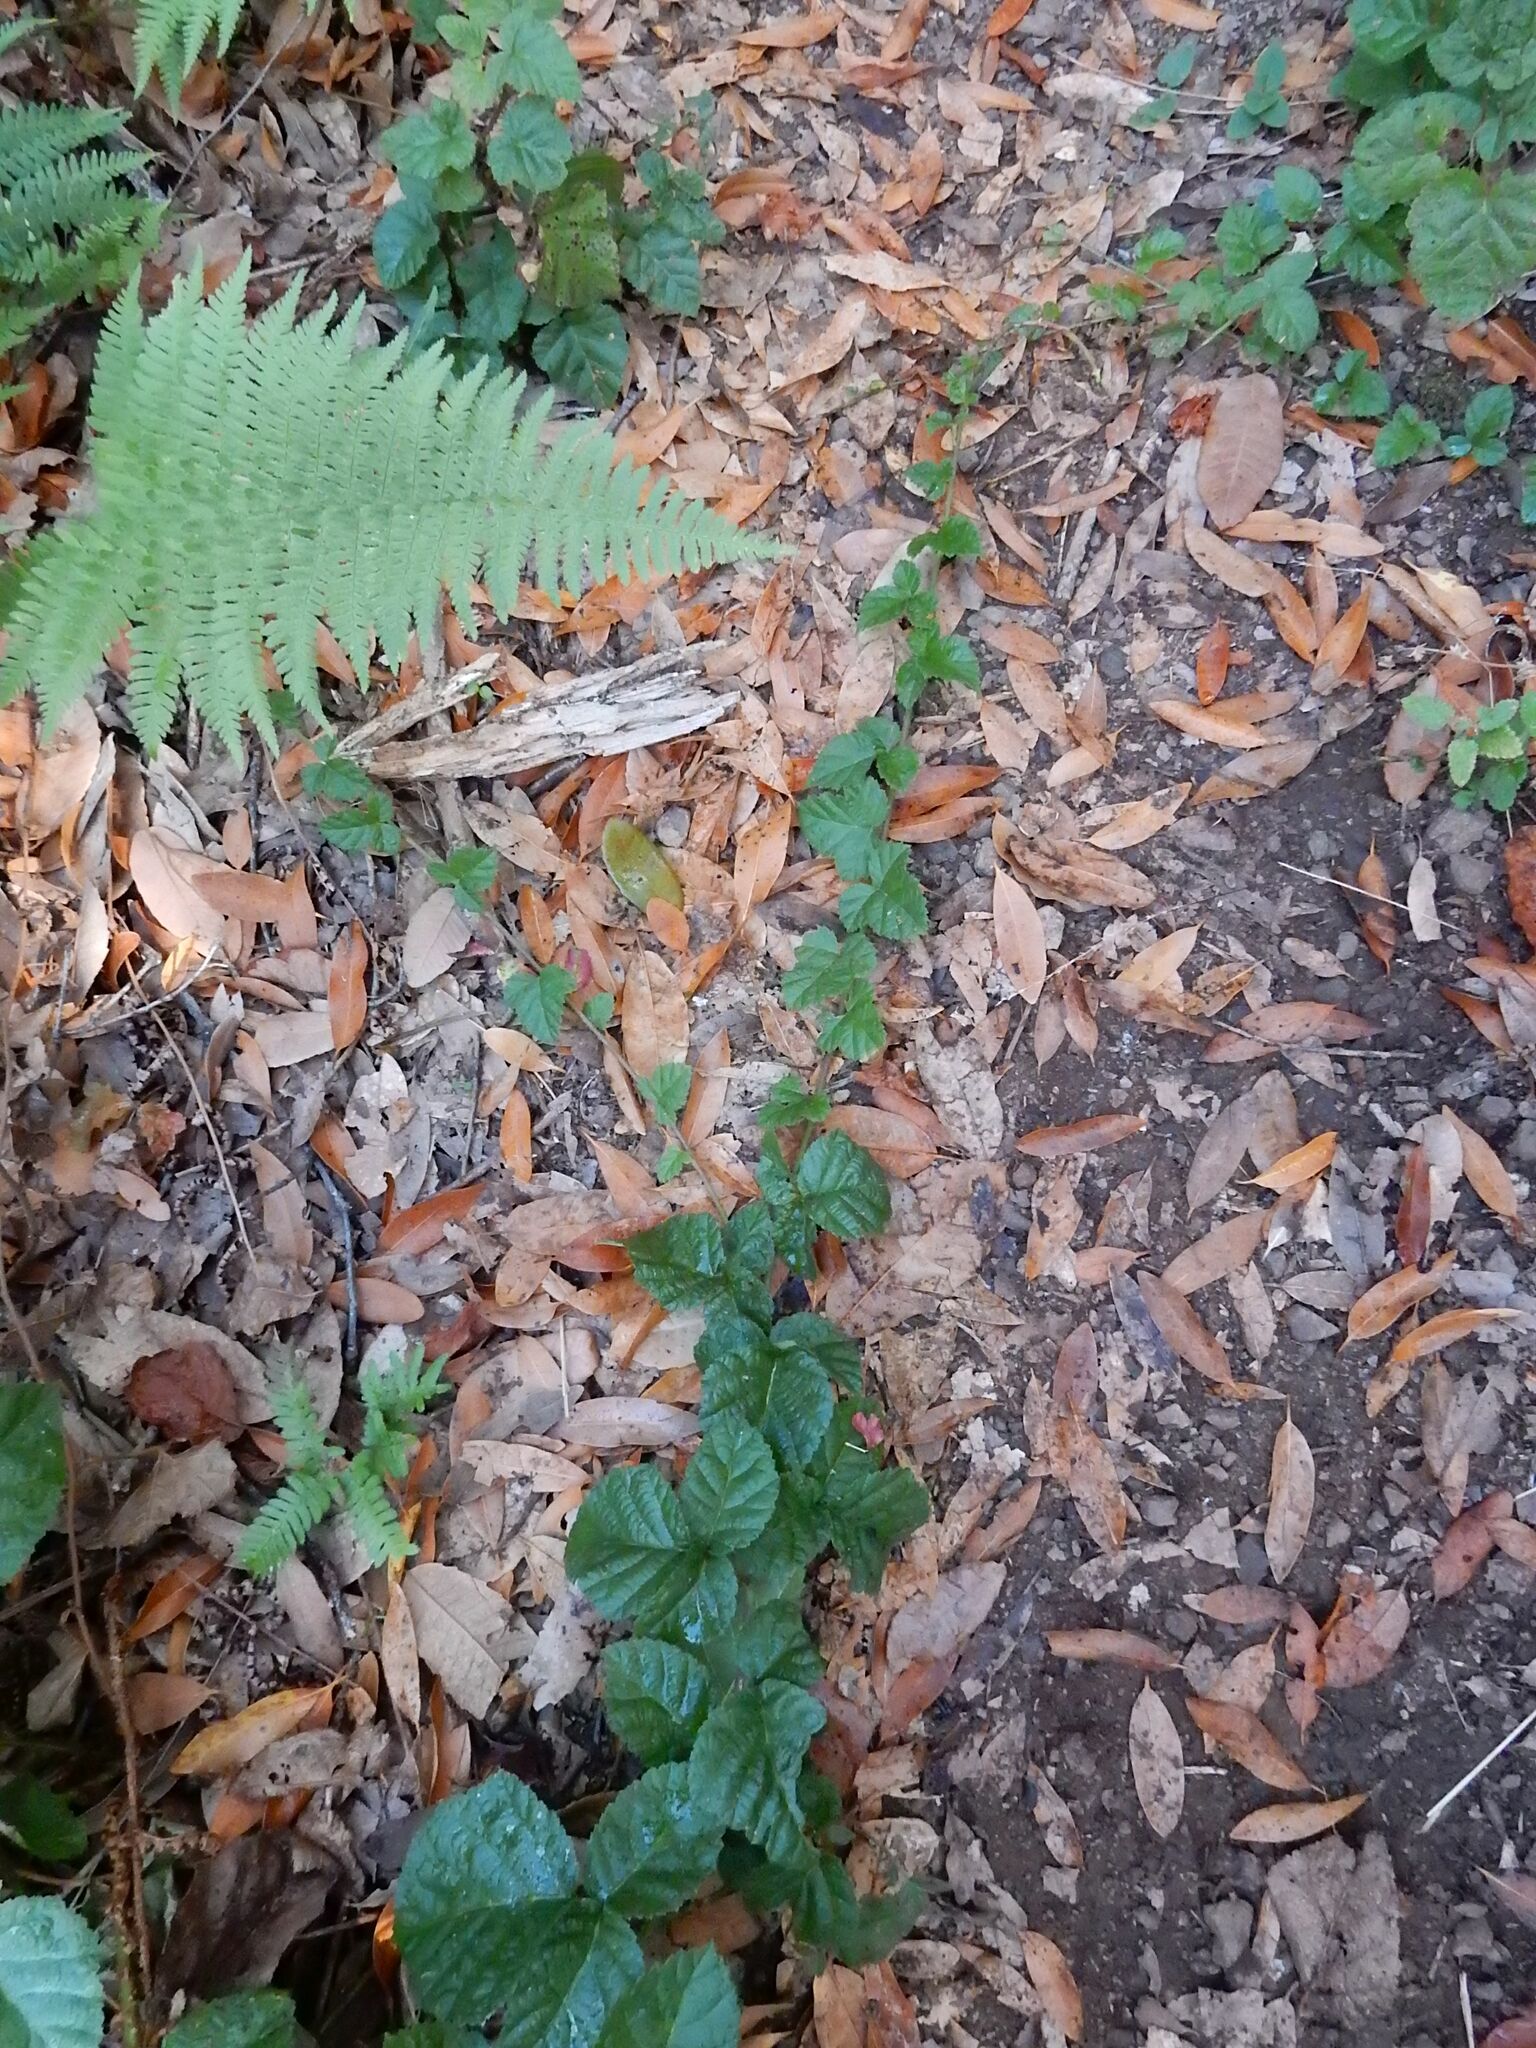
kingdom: Plantae
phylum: Tracheophyta
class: Magnoliopsida
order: Rosales
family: Rosaceae
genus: Rubus
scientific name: Rubus ursinus
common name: Pacific blackberry
